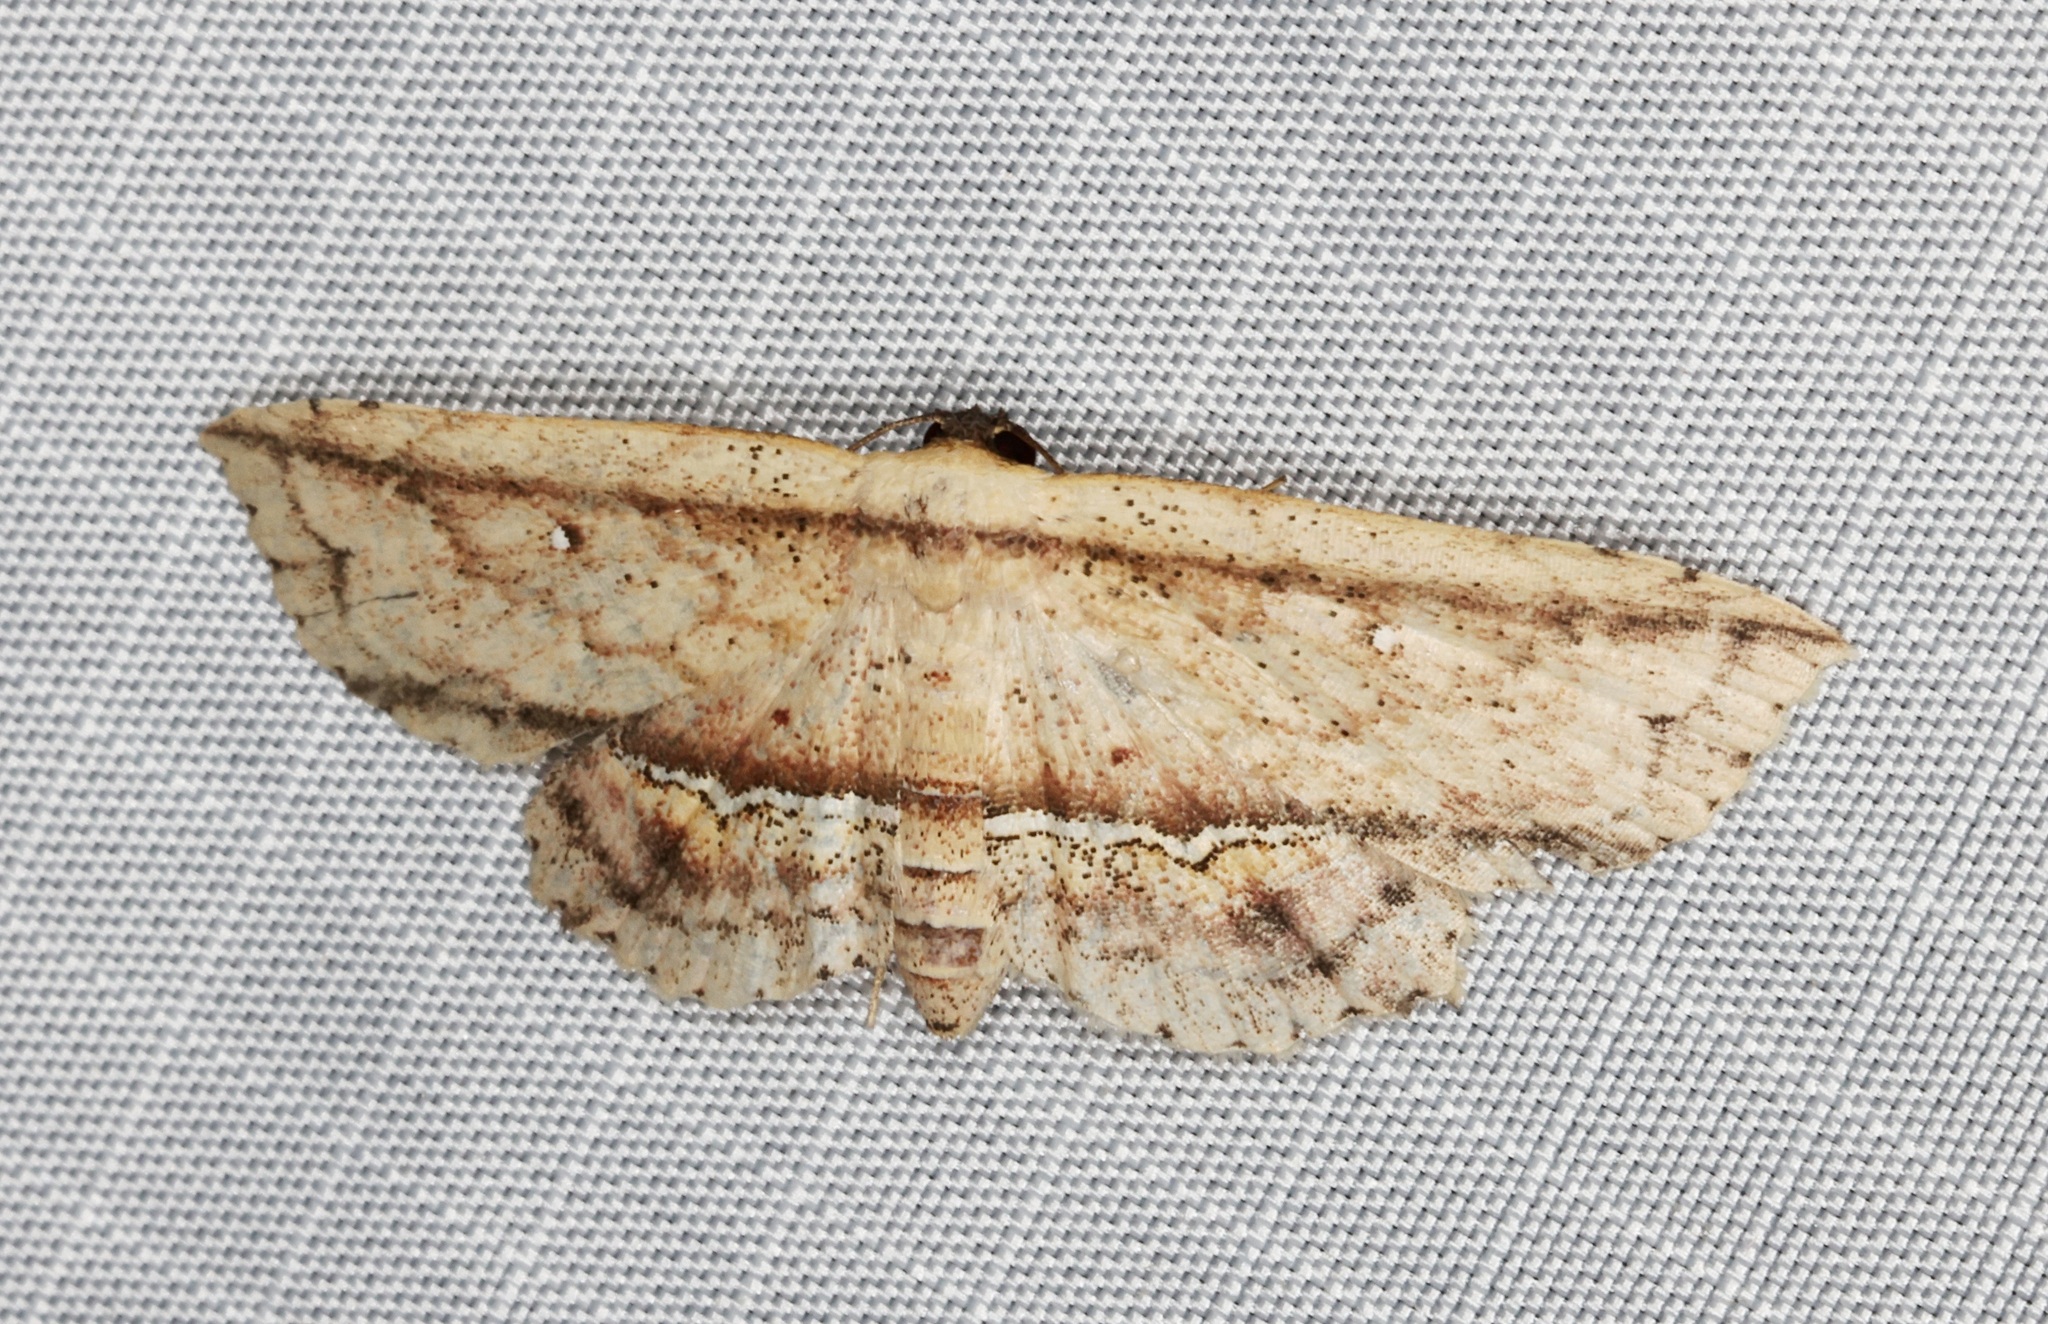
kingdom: Animalia
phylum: Arthropoda
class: Insecta
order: Lepidoptera
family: Noctuidae
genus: Hyposada
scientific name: Hyposada postalbata
